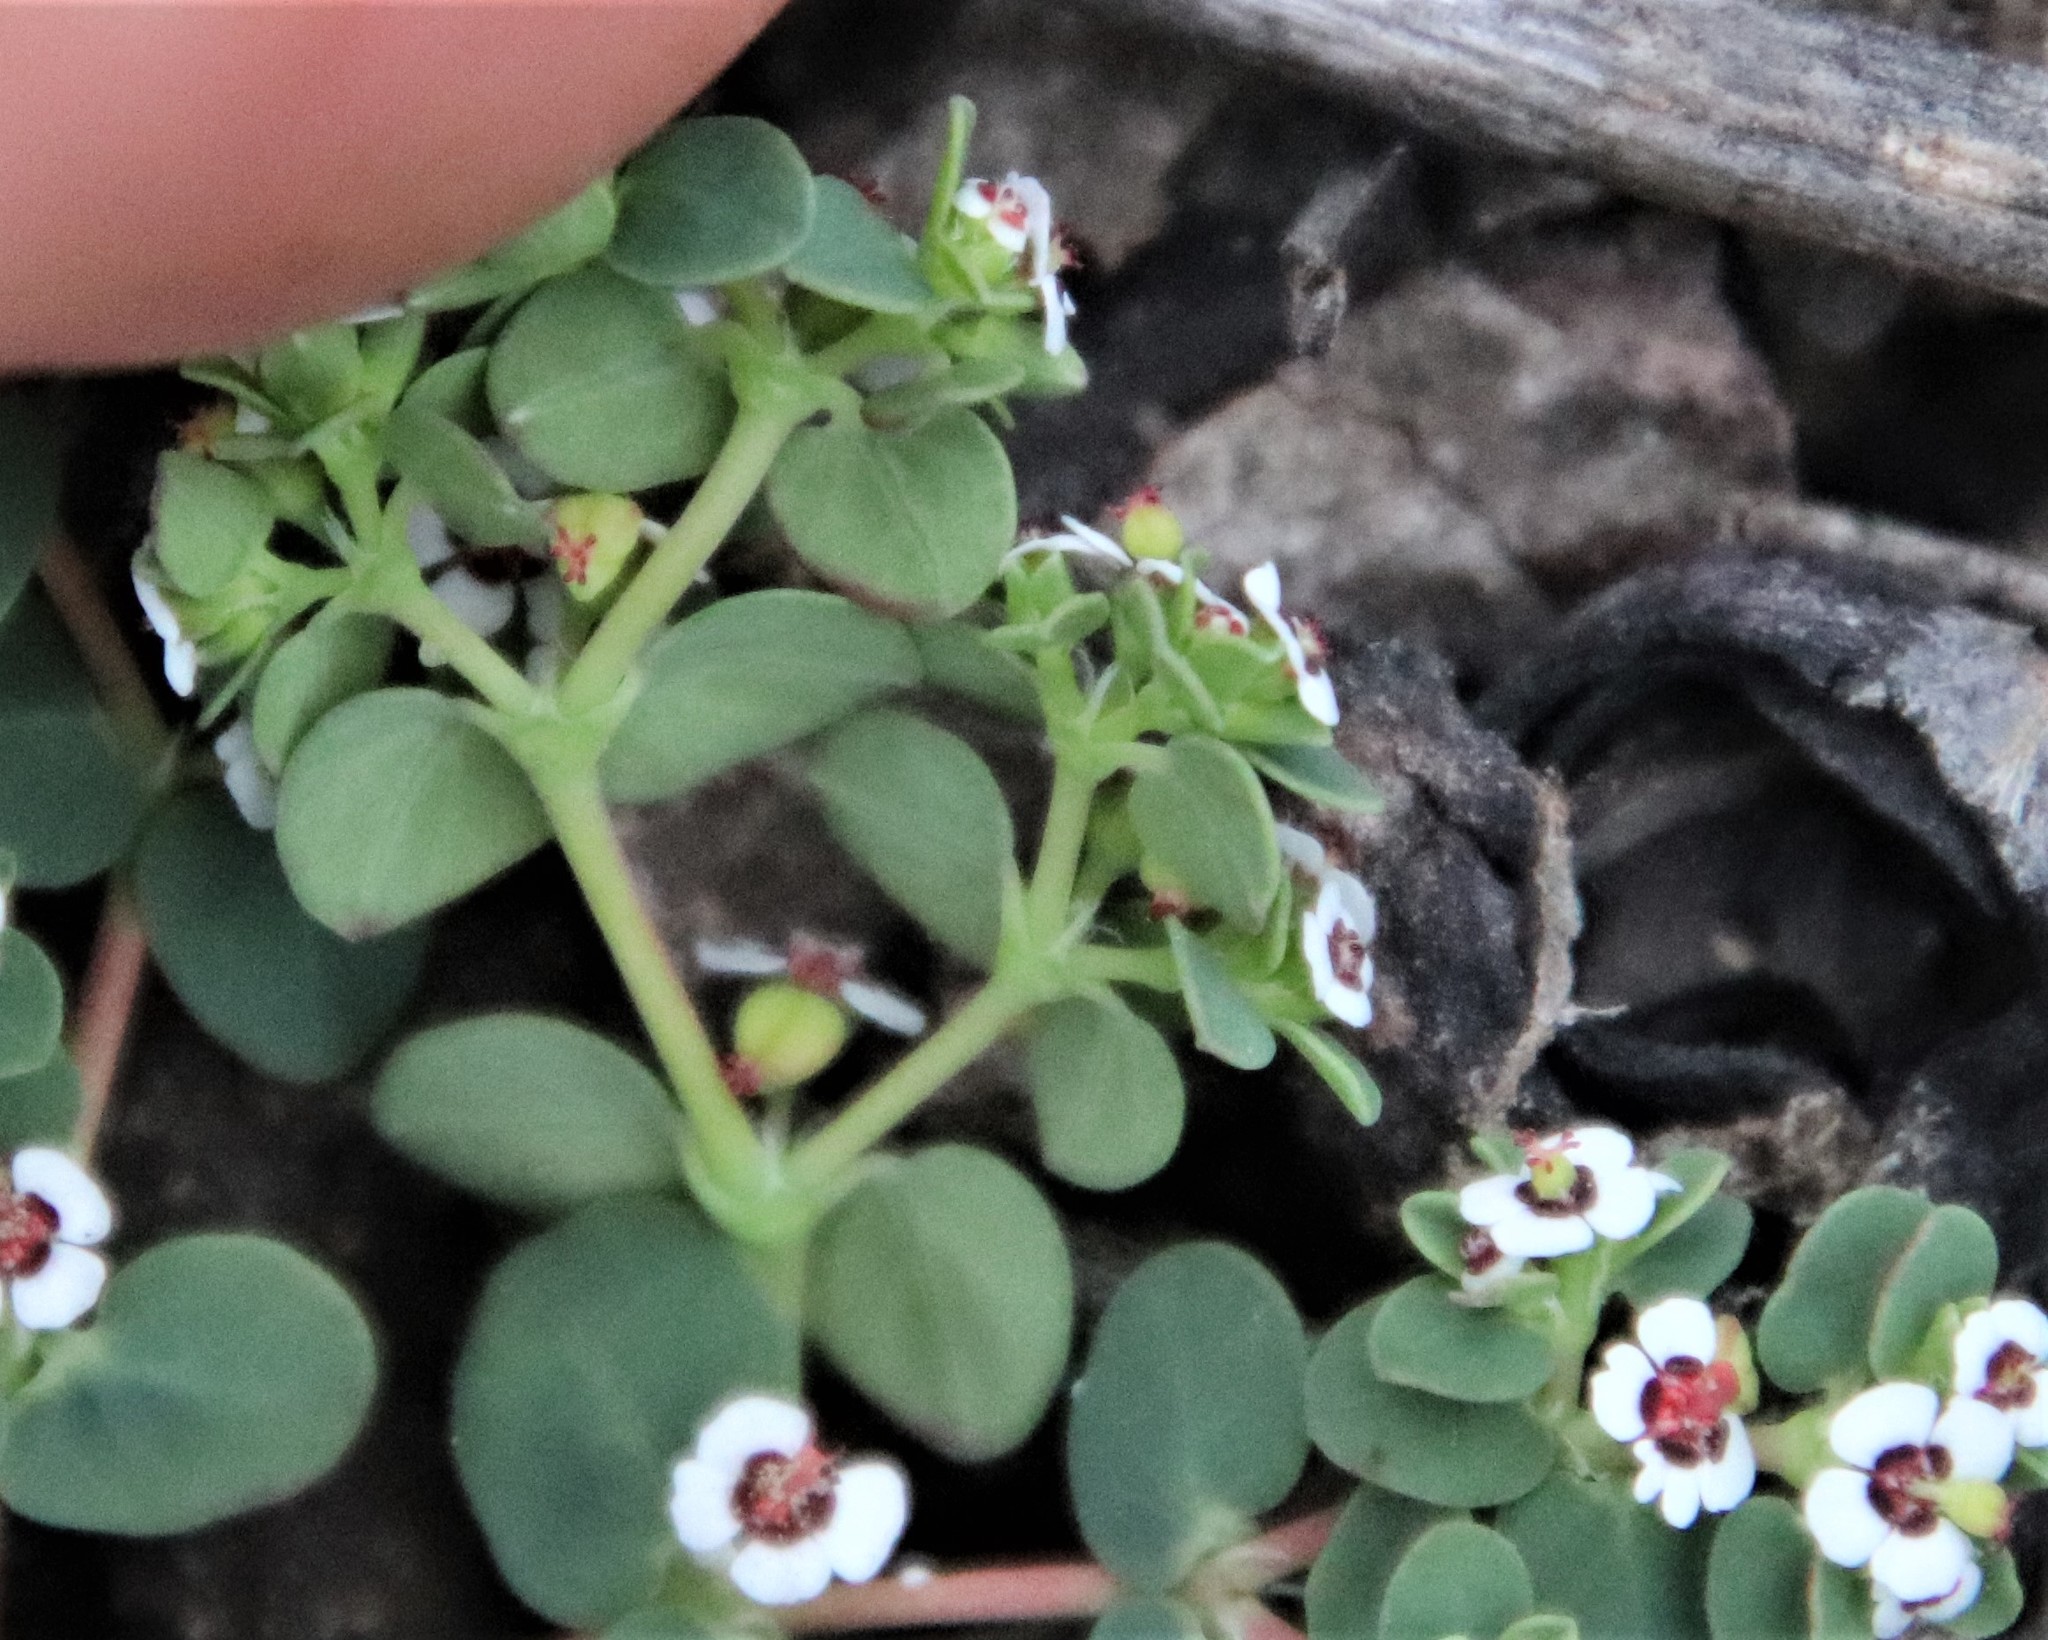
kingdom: Plantae
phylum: Tracheophyta
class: Magnoliopsida
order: Malpighiales
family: Euphorbiaceae
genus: Euphorbia
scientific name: Euphorbia polycarpa
